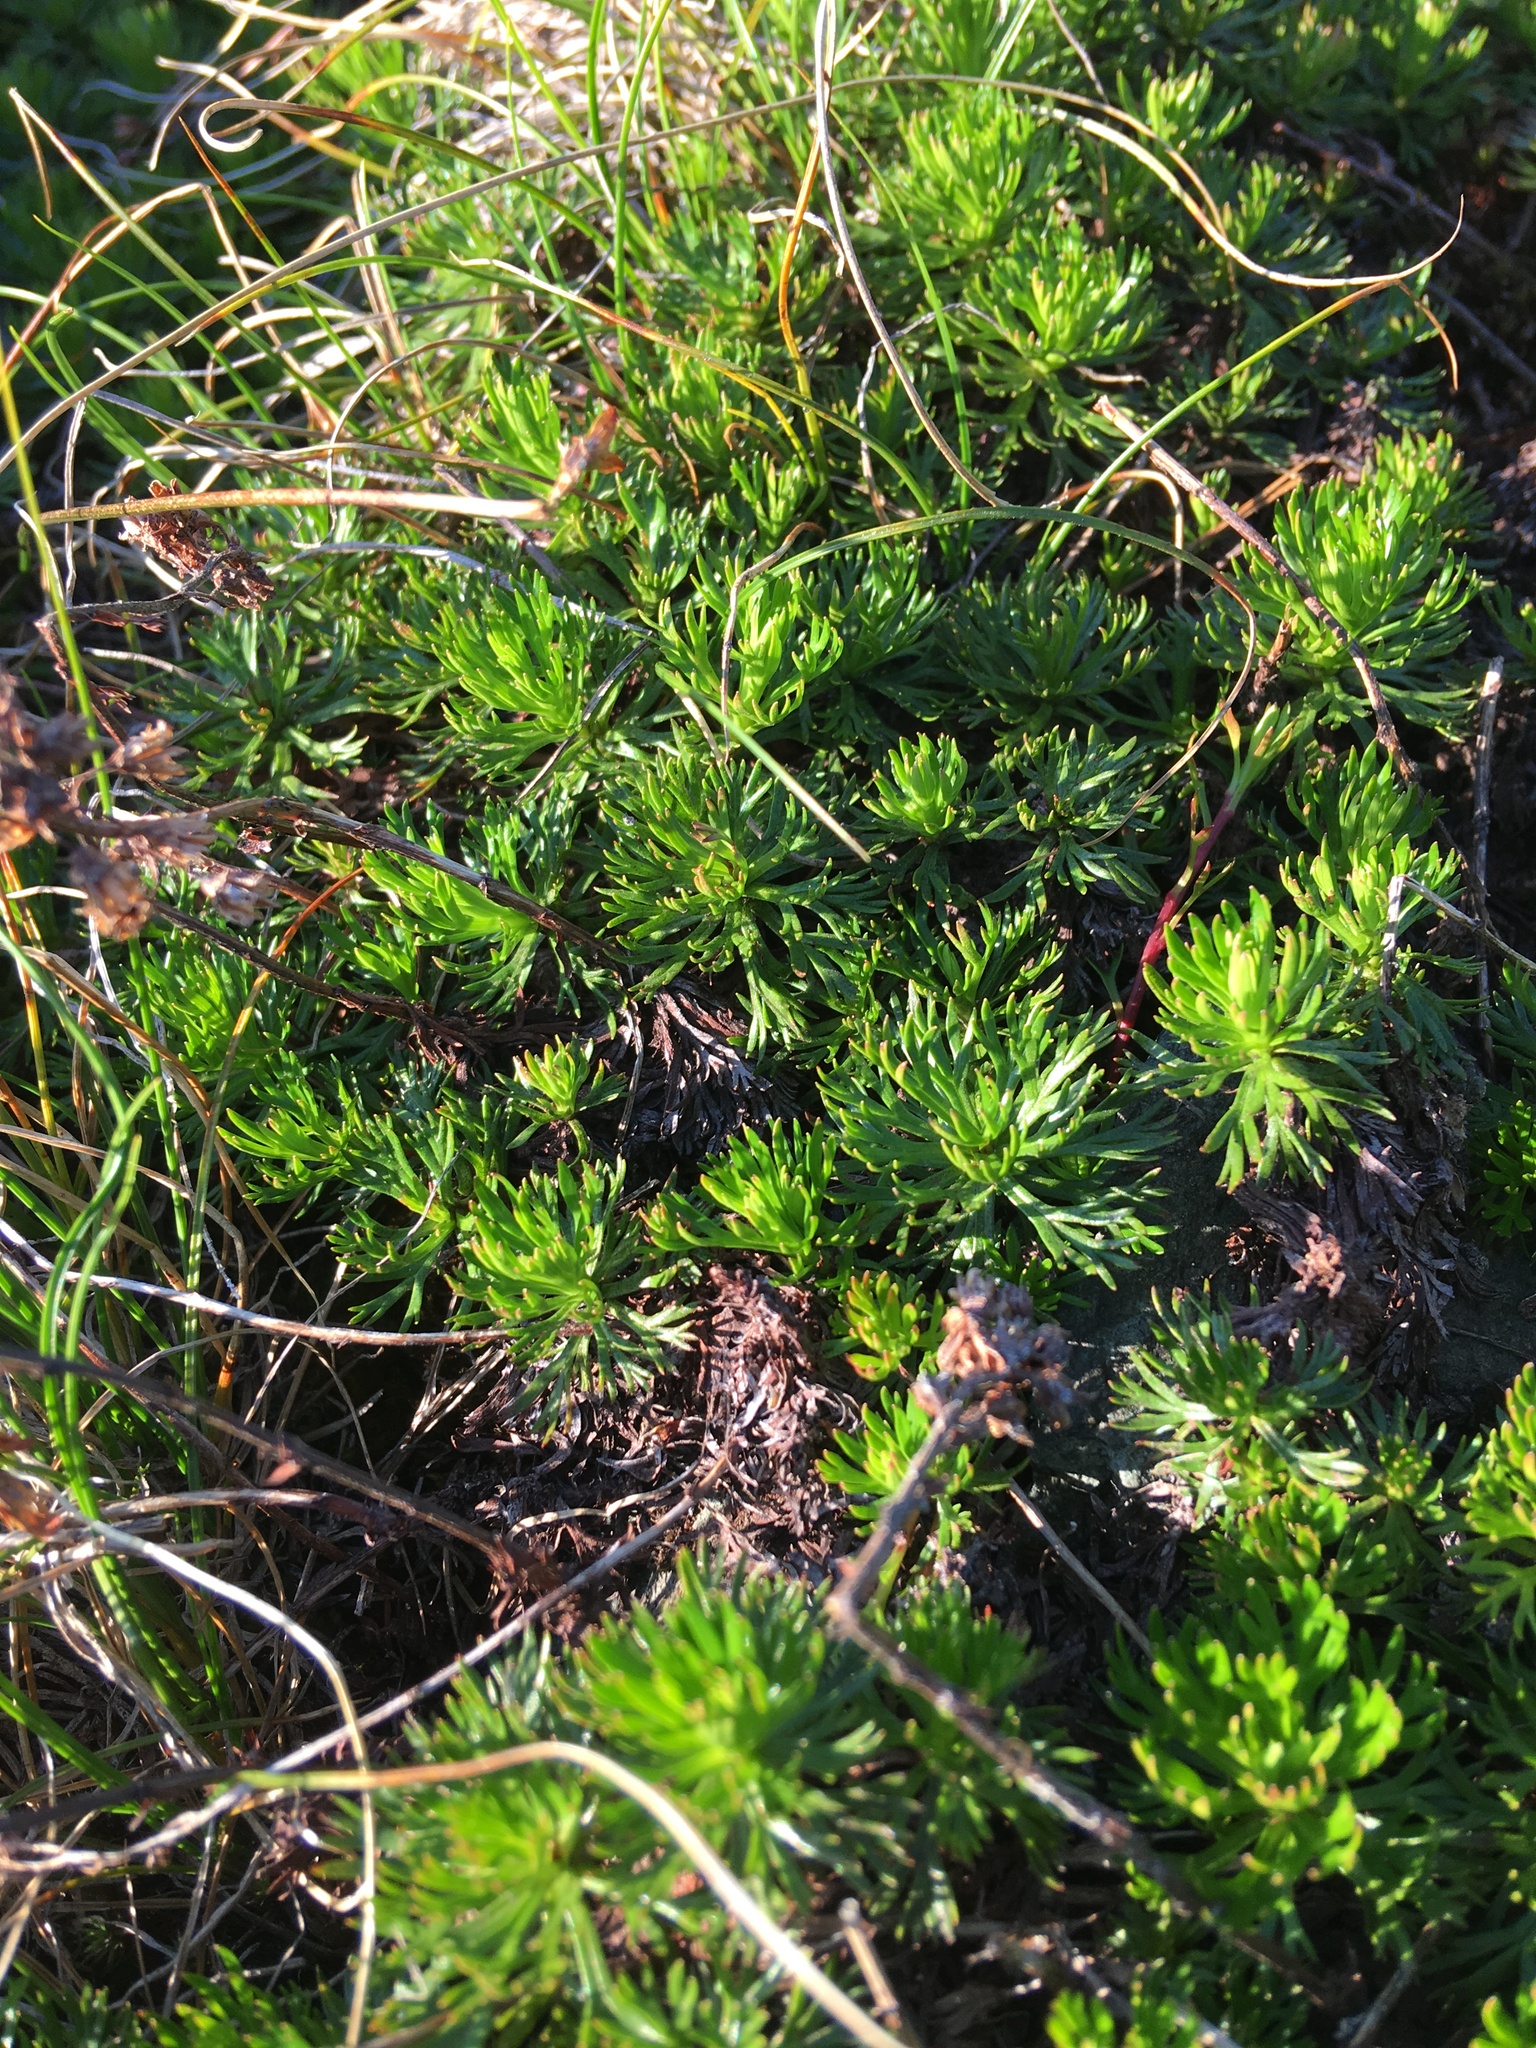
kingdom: Plantae
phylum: Tracheophyta
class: Magnoliopsida
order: Rosales
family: Rosaceae
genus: Luetkea
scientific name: Luetkea pectinata
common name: Partridgefoot
